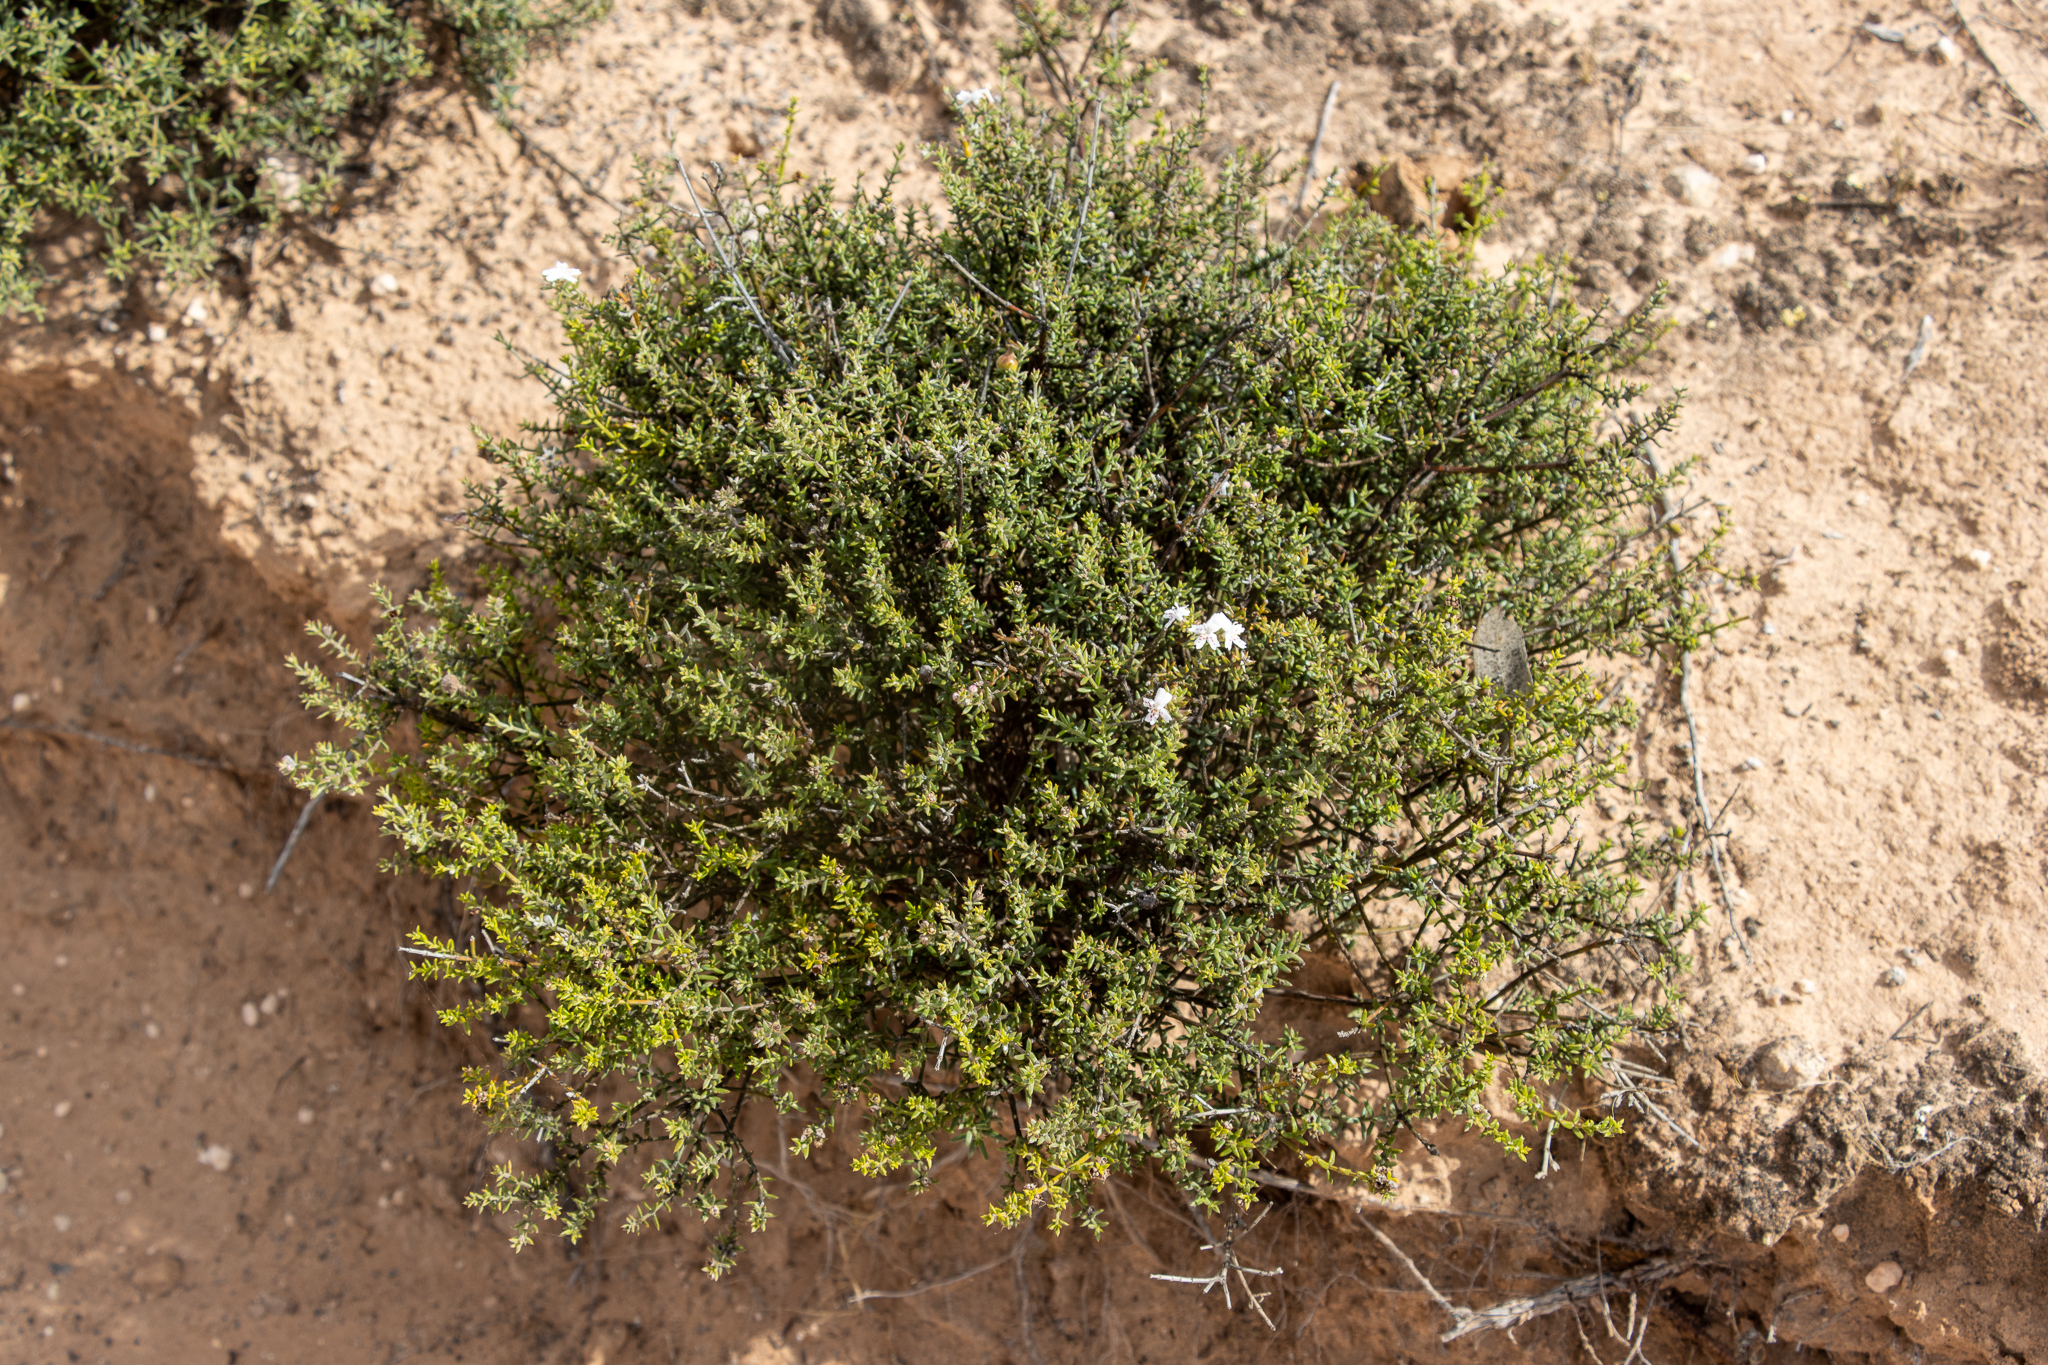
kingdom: Plantae
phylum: Tracheophyta
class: Magnoliopsida
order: Lamiales
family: Lamiaceae
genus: Westringia
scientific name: Westringia rigida
